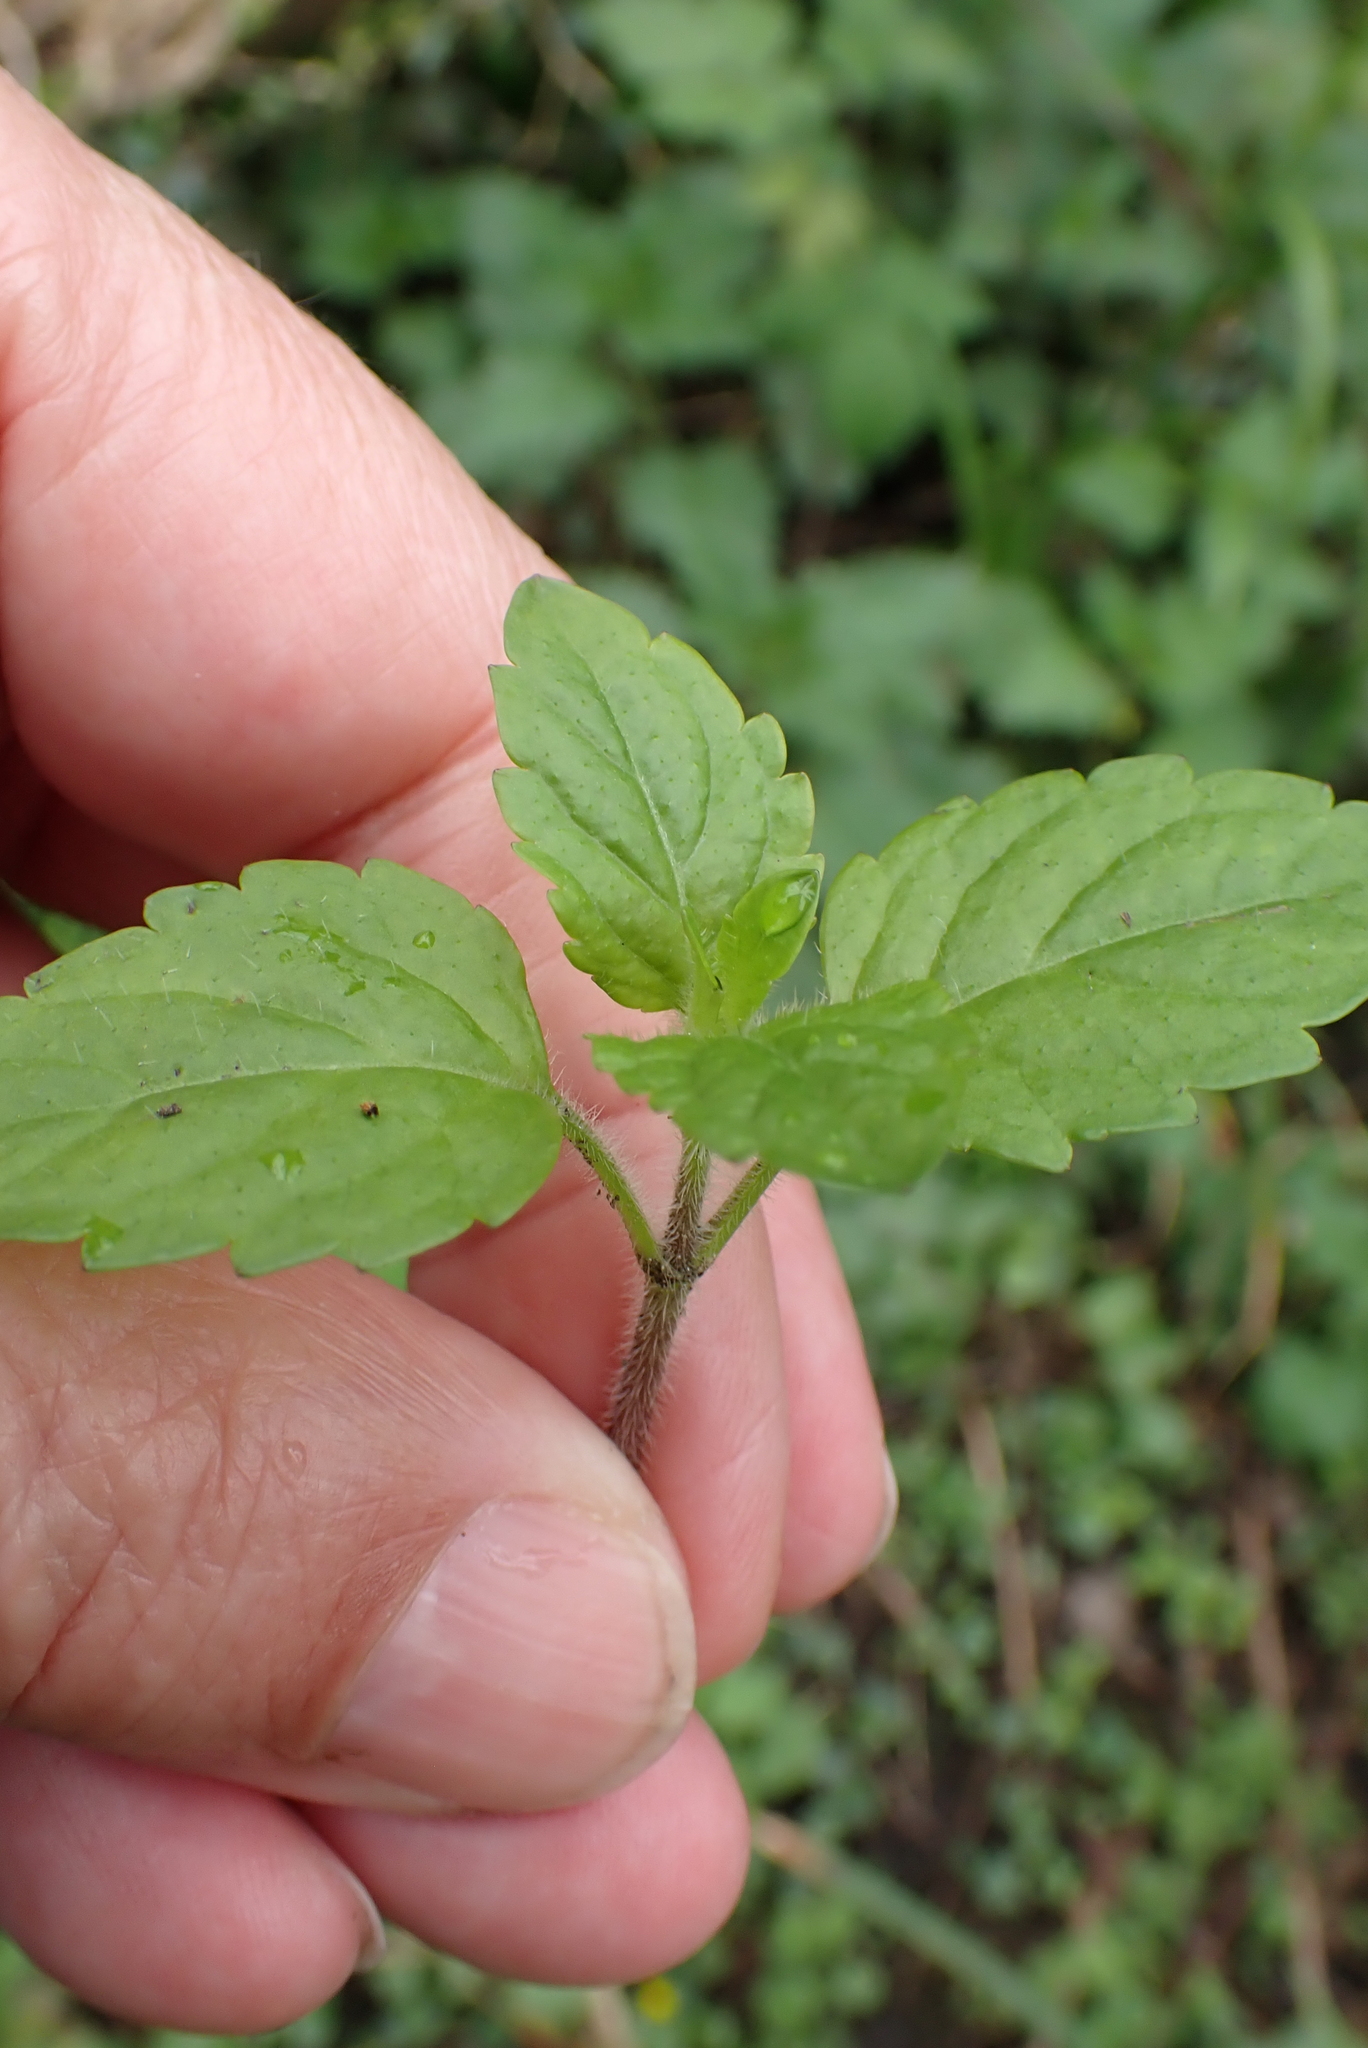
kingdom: Plantae
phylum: Tracheophyta
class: Magnoliopsida
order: Lamiales
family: Plantaginaceae
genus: Veronica
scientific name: Veronica montana
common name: Wood speedwell
